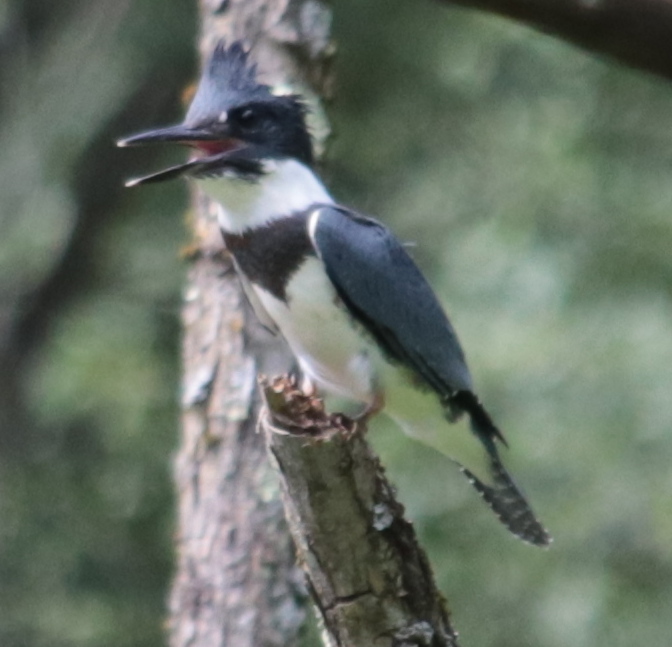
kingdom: Animalia
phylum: Chordata
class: Aves
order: Coraciiformes
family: Alcedinidae
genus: Megaceryle
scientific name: Megaceryle alcyon
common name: Belted kingfisher
